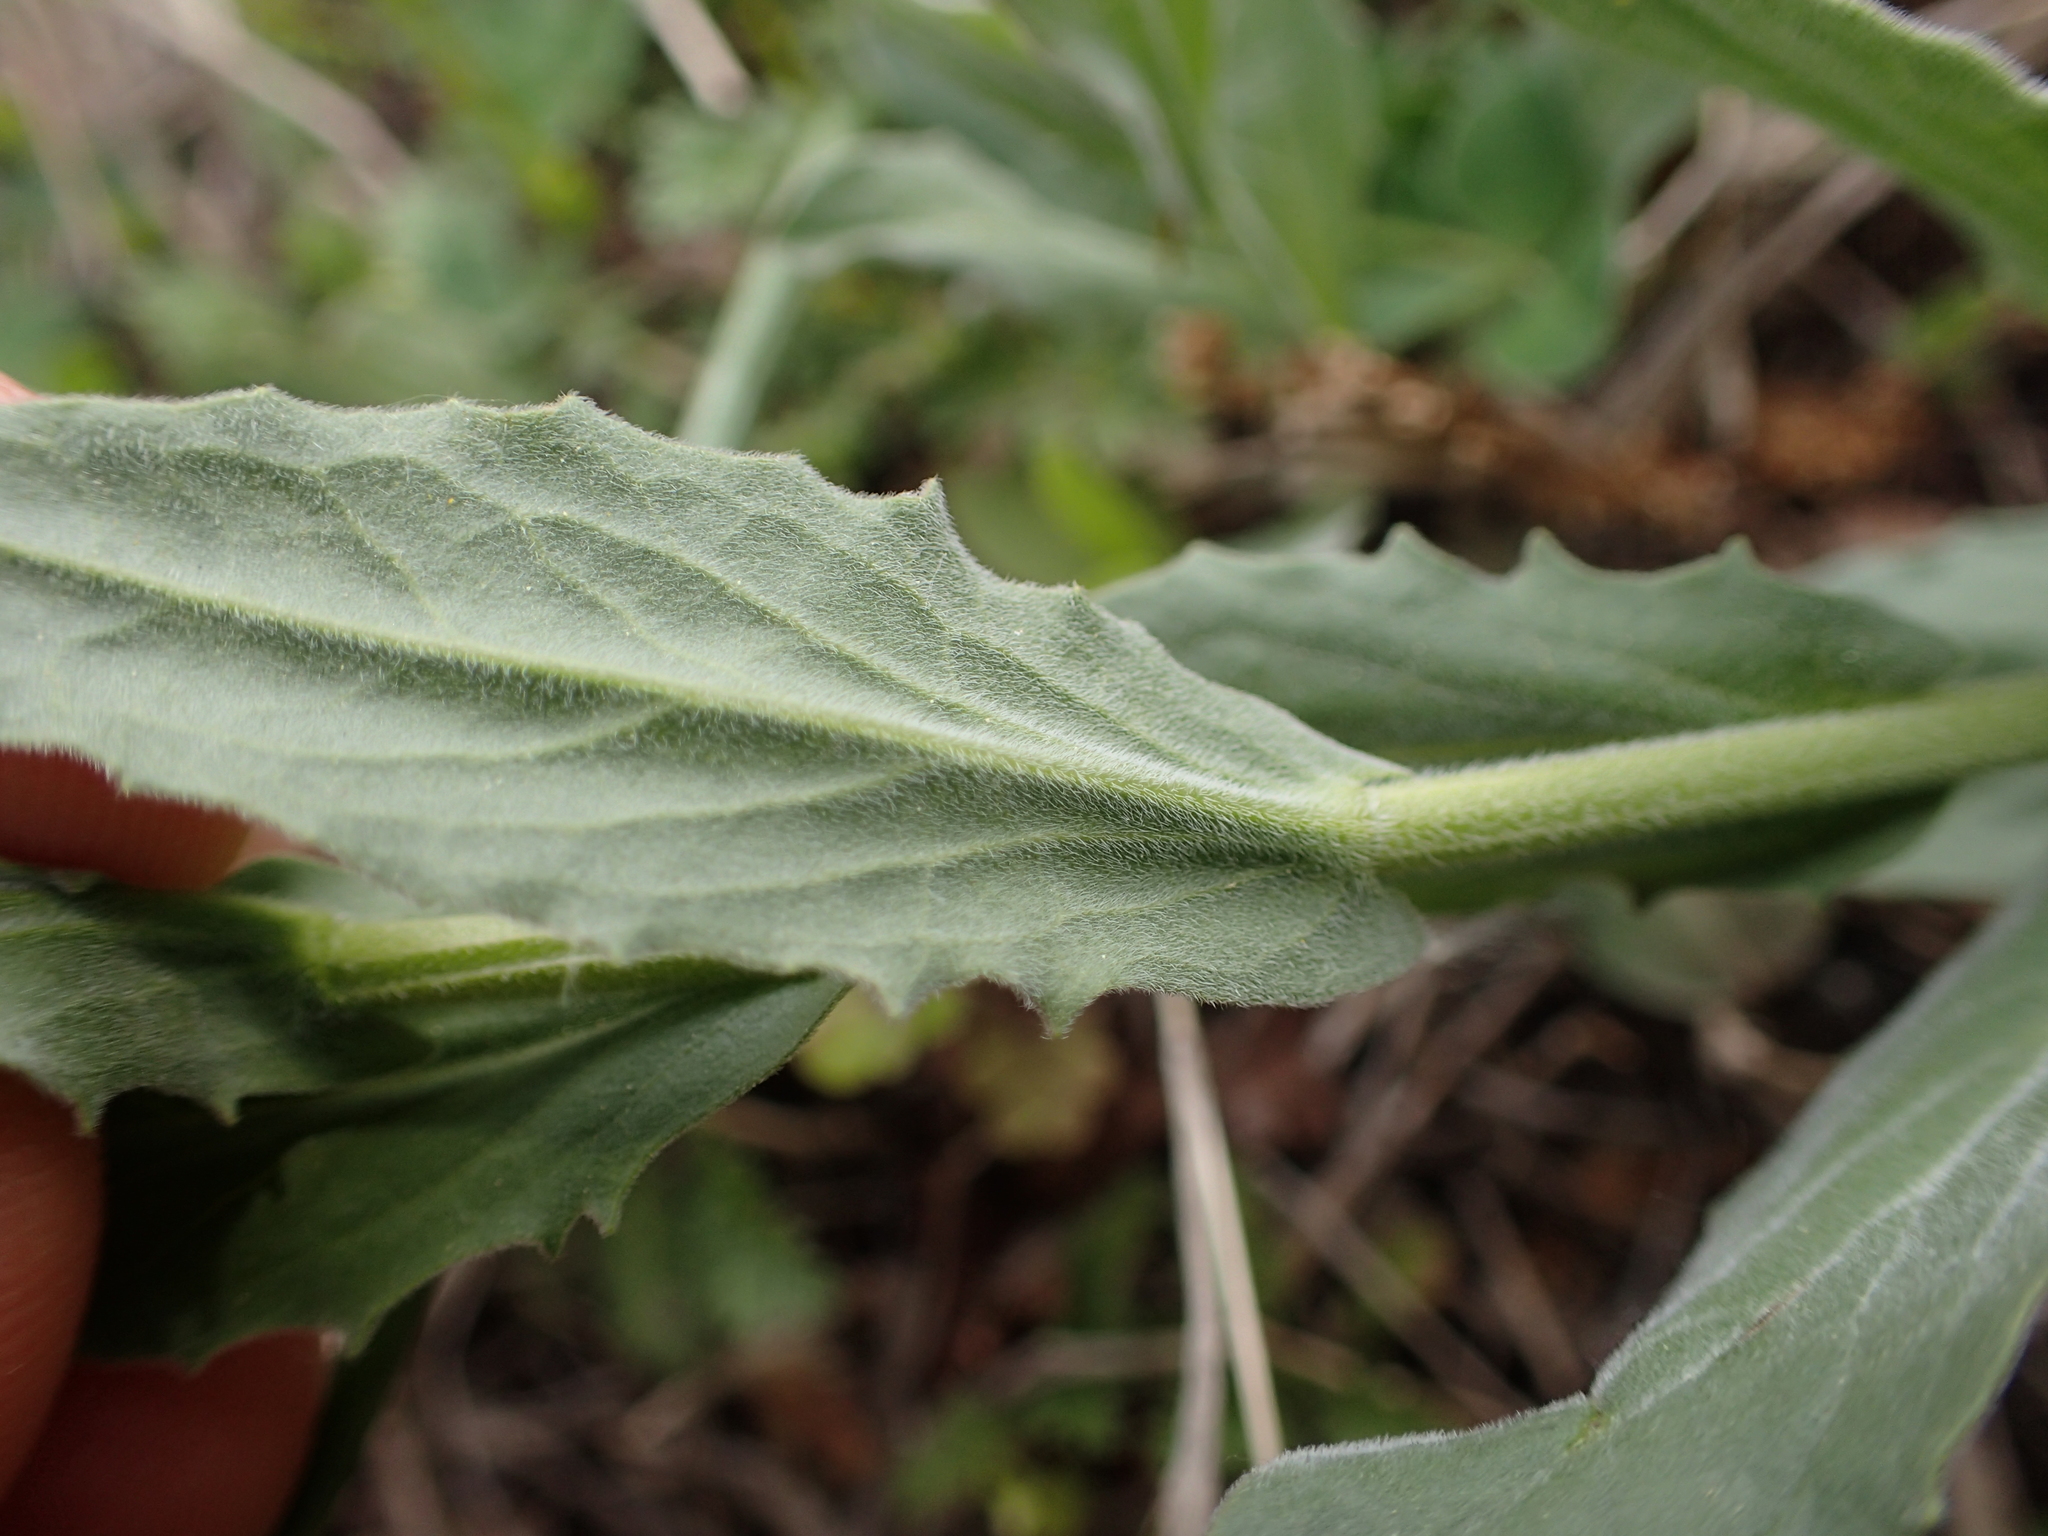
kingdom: Plantae
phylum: Tracheophyta
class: Magnoliopsida
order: Brassicales
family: Brassicaceae
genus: Lepidium
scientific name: Lepidium draba
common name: Hoary cress
